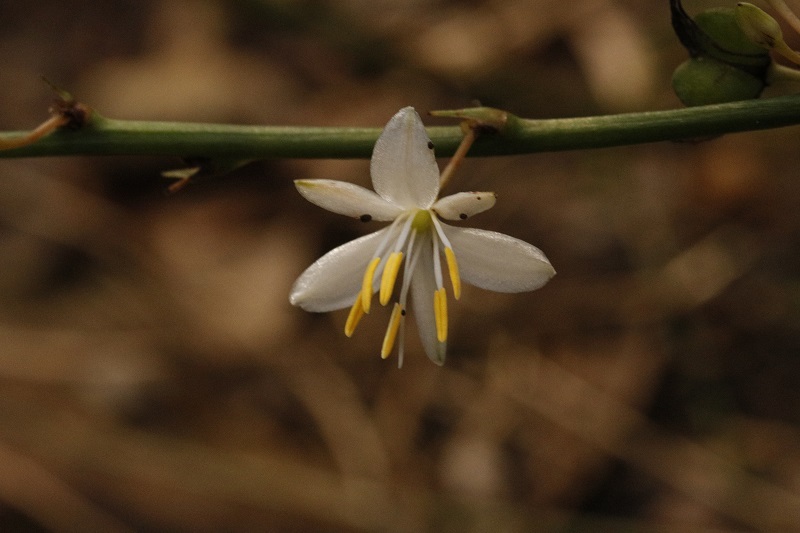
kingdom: Plantae
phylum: Tracheophyta
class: Liliopsida
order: Asparagales
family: Asparagaceae
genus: Chlorophytum
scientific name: Chlorophytum comosum
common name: Spider plant
